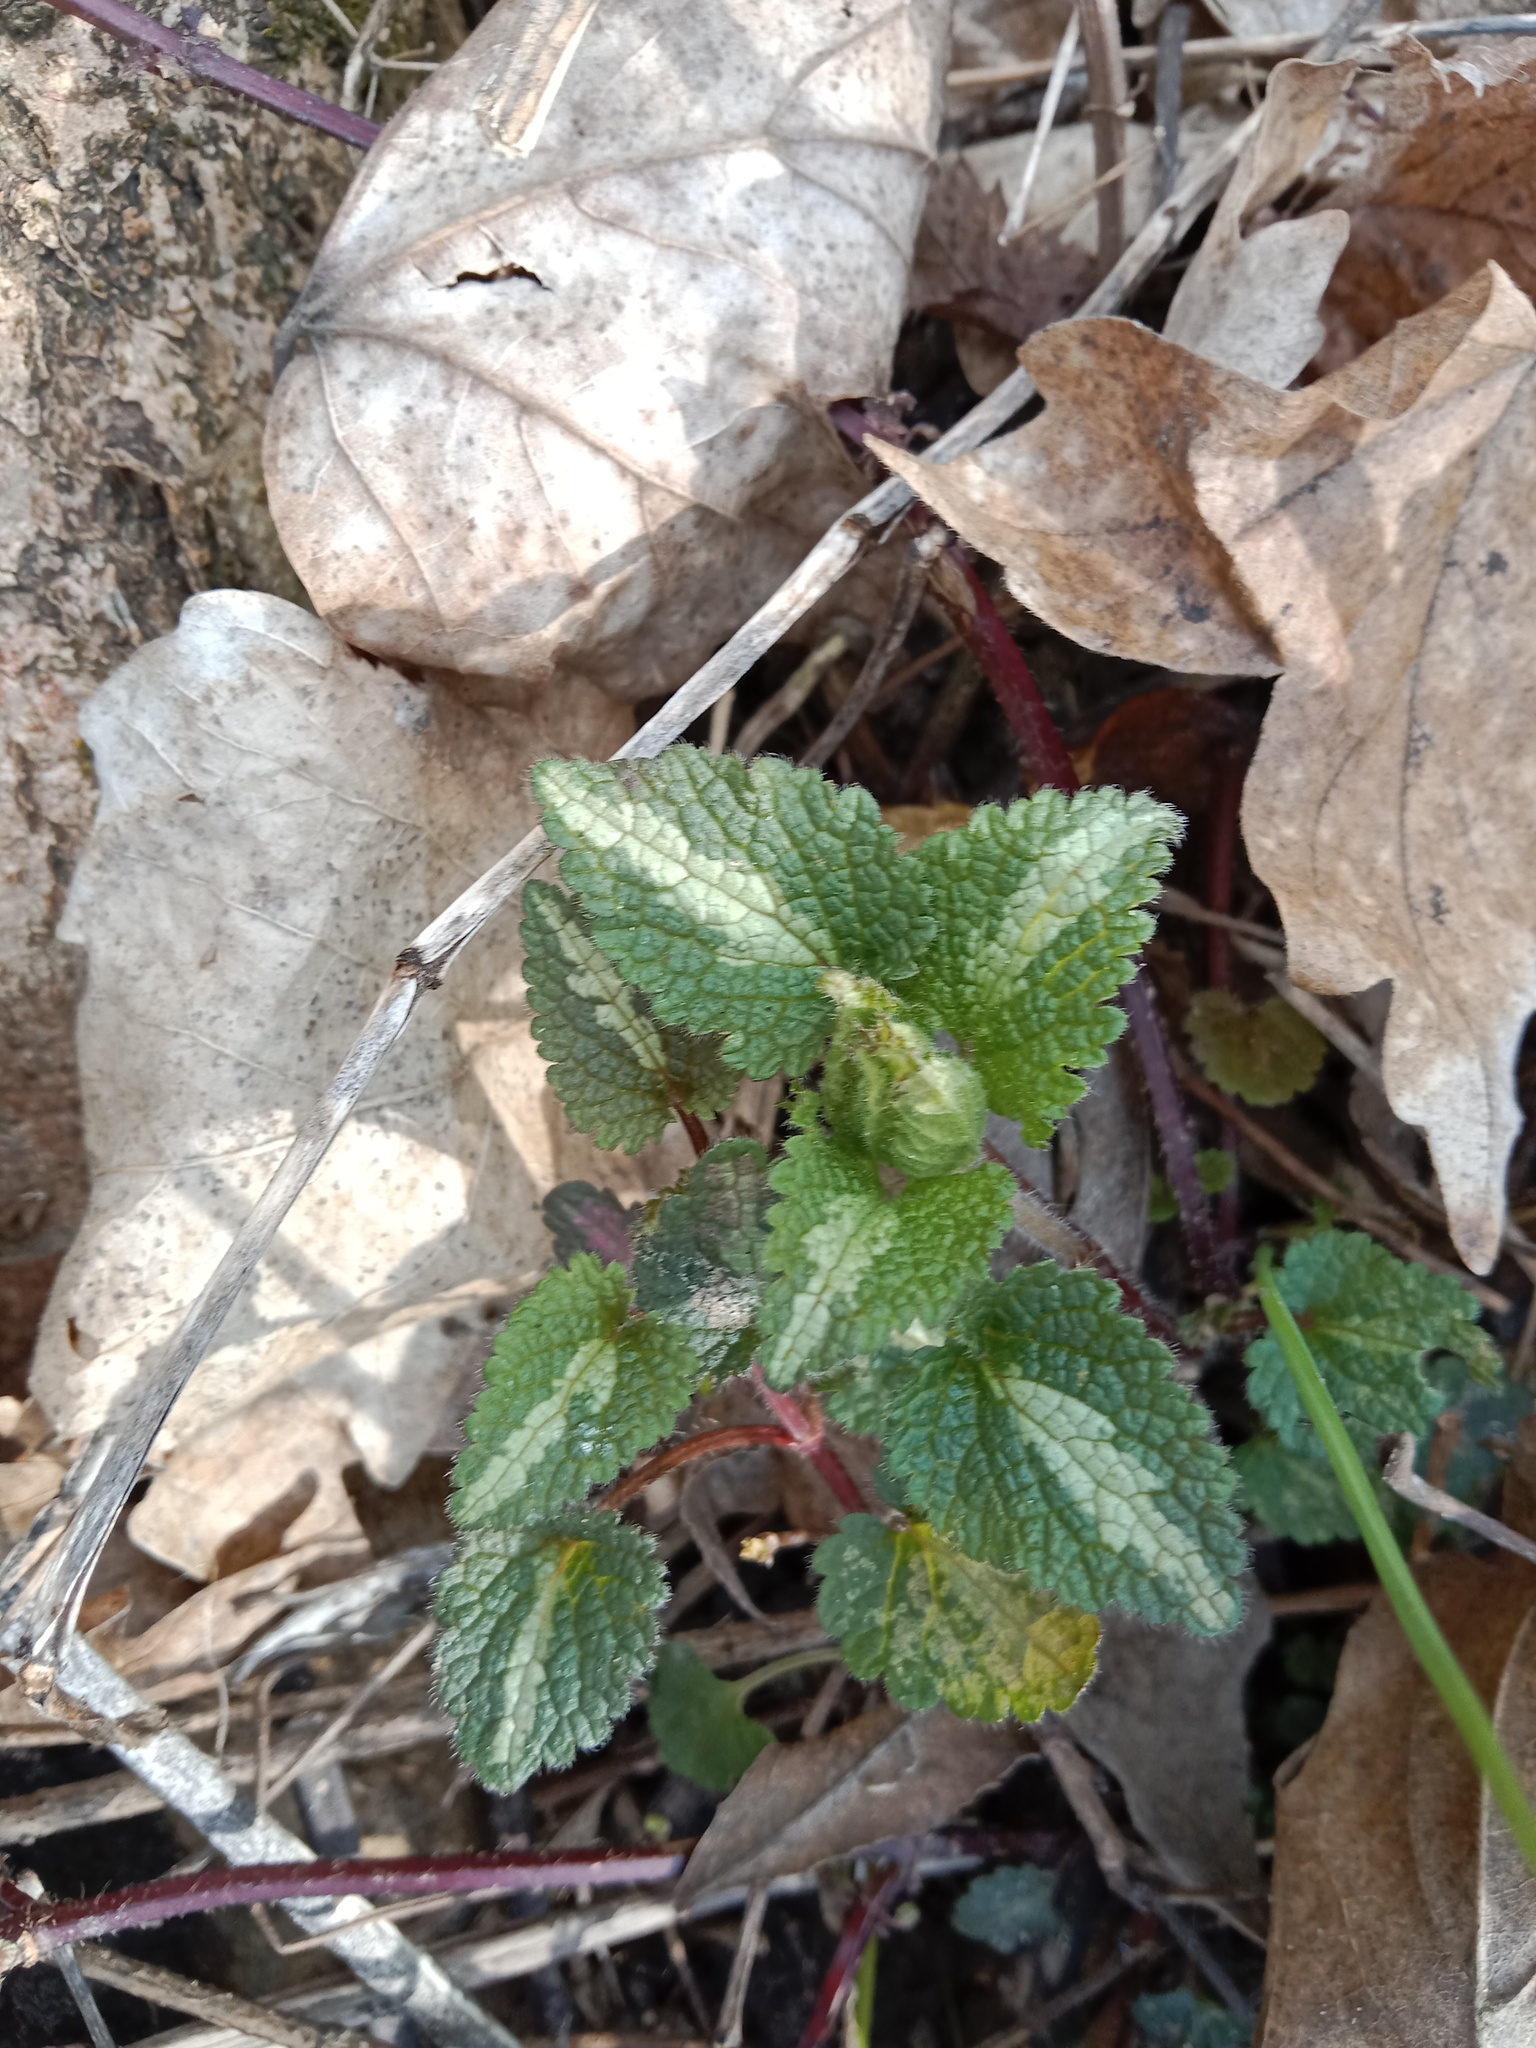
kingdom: Plantae
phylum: Tracheophyta
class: Magnoliopsida
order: Lamiales
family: Lamiaceae
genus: Lamium
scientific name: Lamium maculatum
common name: Spotted dead-nettle
